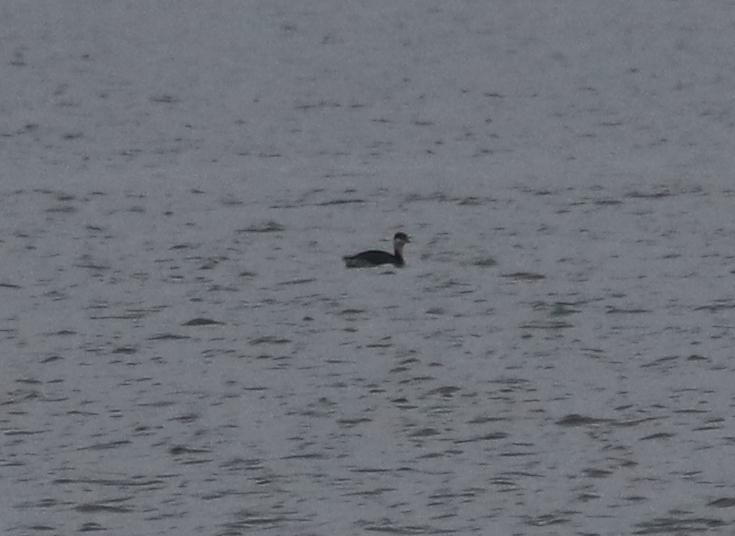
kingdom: Animalia
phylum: Chordata
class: Aves
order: Podicipediformes
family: Podicipedidae
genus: Podiceps
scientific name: Podiceps auritus
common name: Horned grebe
